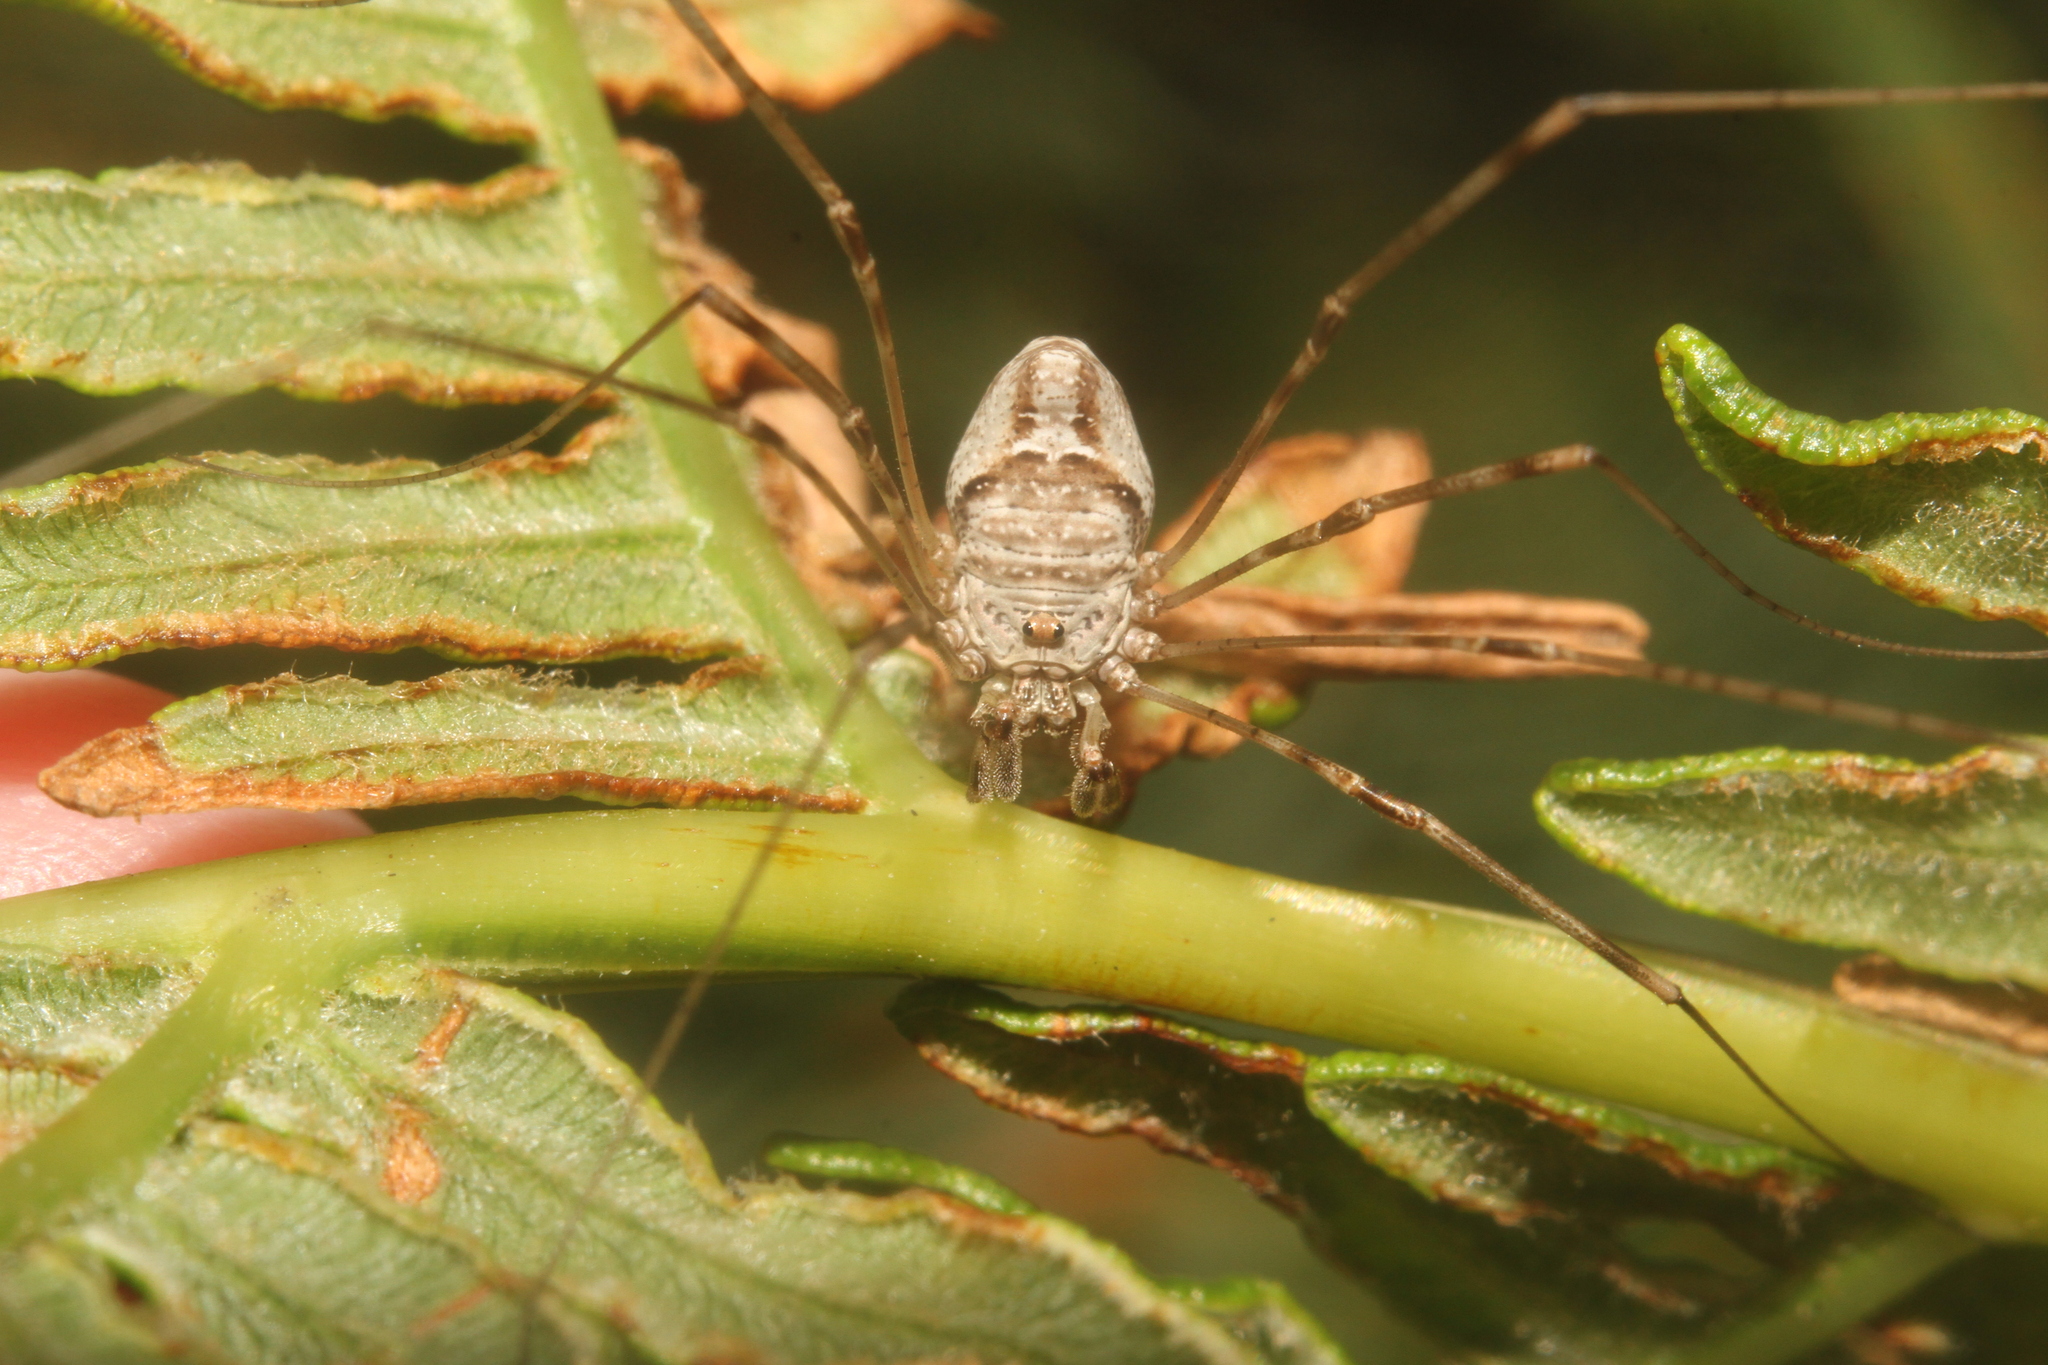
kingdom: Animalia
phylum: Arthropoda
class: Arachnida
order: Opiliones
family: Phalangiidae
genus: Dicranopalpus
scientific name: Dicranopalpus
